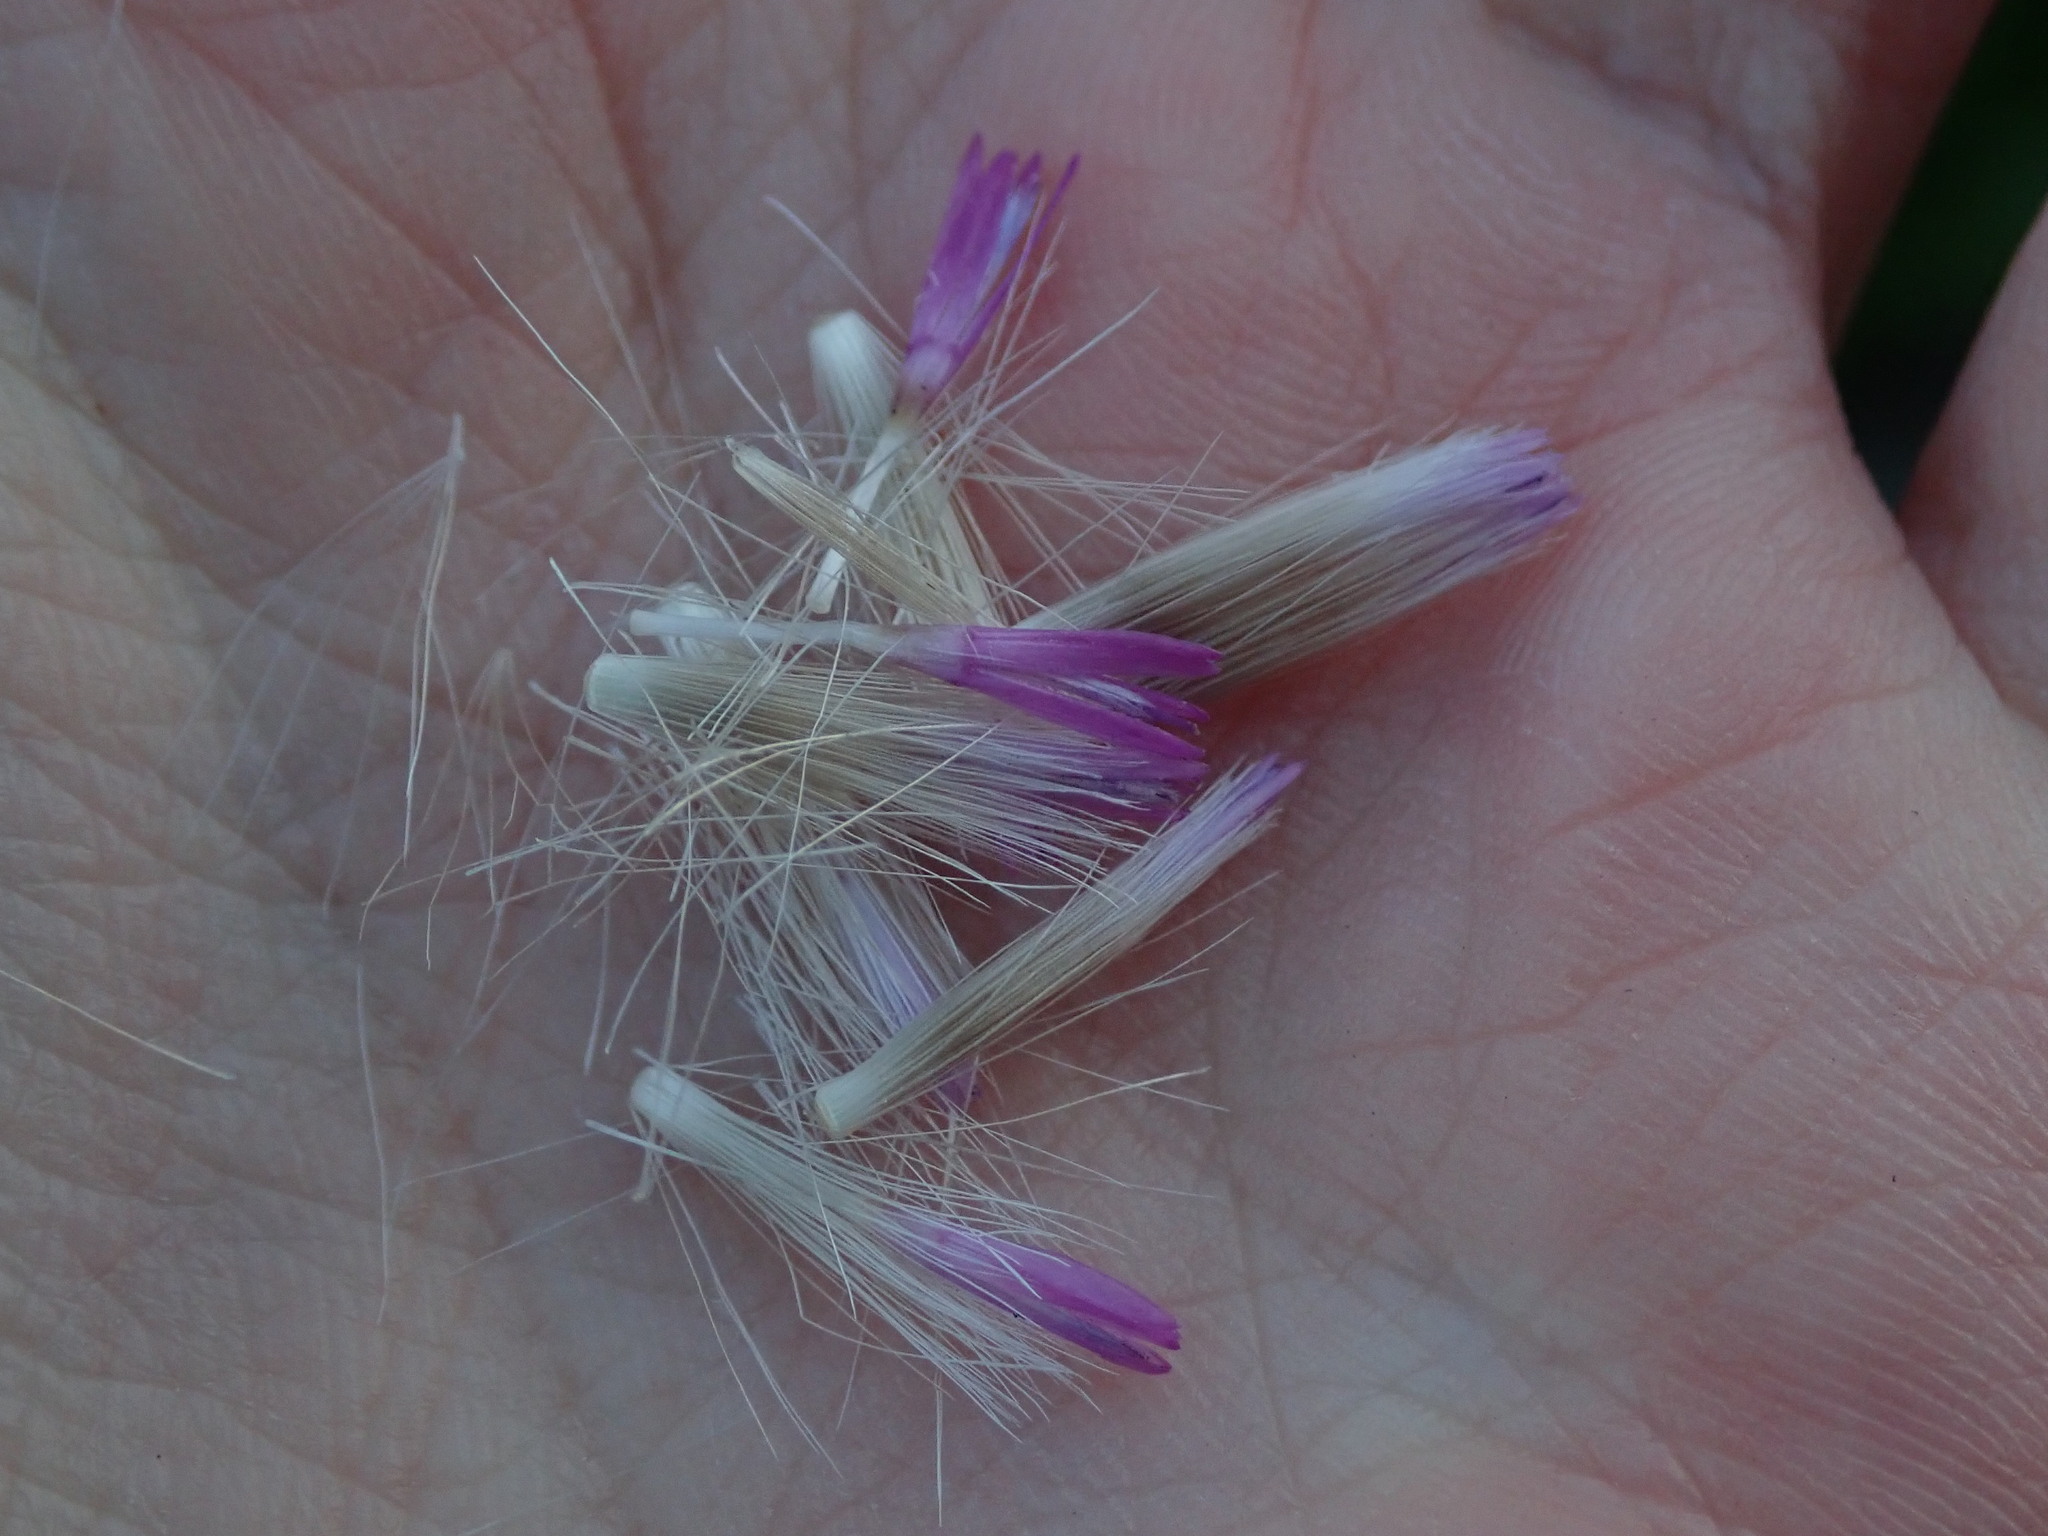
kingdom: Plantae
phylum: Tracheophyta
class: Magnoliopsida
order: Asterales
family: Asteraceae
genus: Carduus
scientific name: Carduus tenuiflorus
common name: Slender thistle
